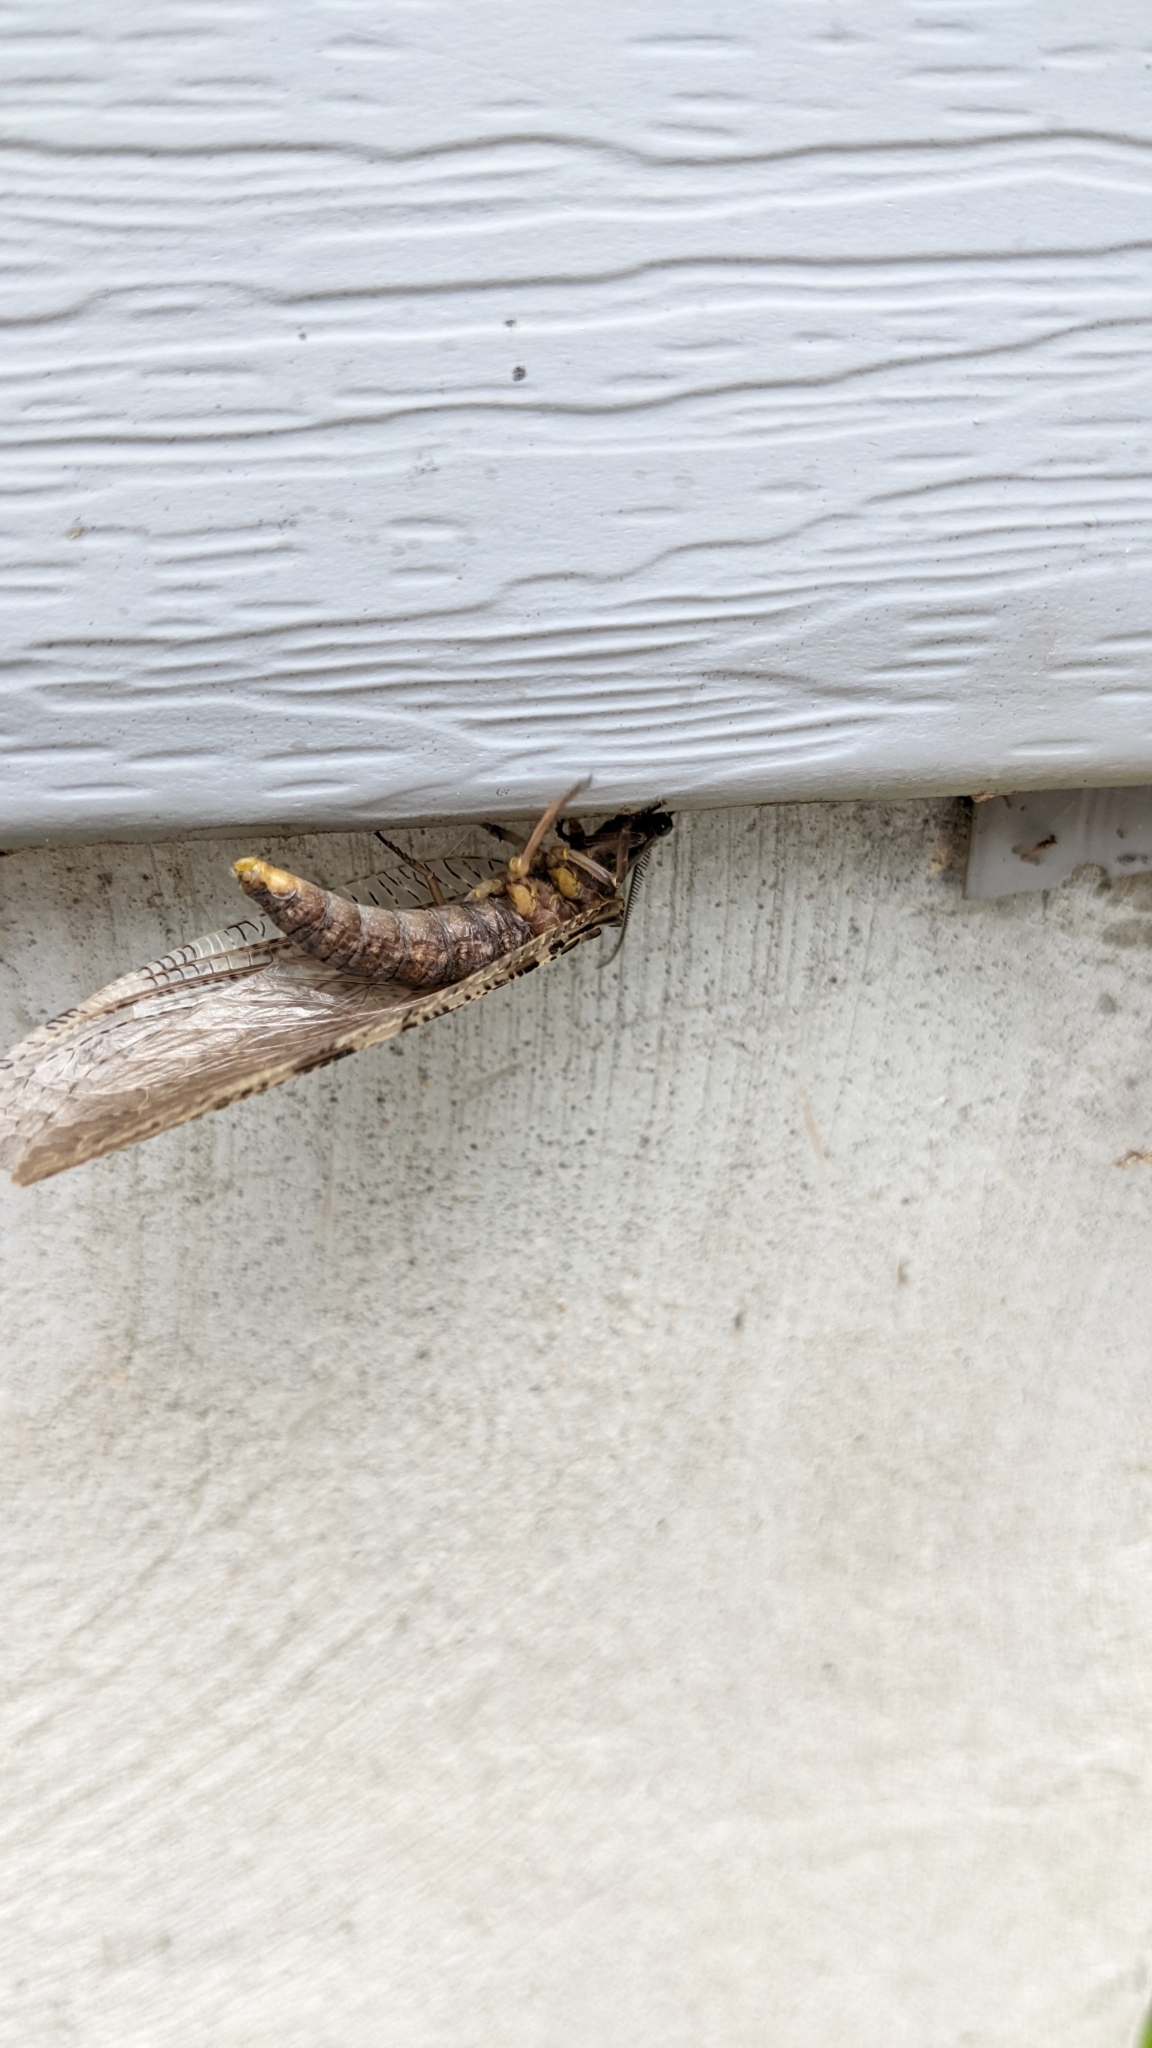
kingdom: Animalia
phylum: Arthropoda
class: Insecta
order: Megaloptera
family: Corydalidae
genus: Chauliodes
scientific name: Chauliodes pectinicornis
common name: Summer fishfly
